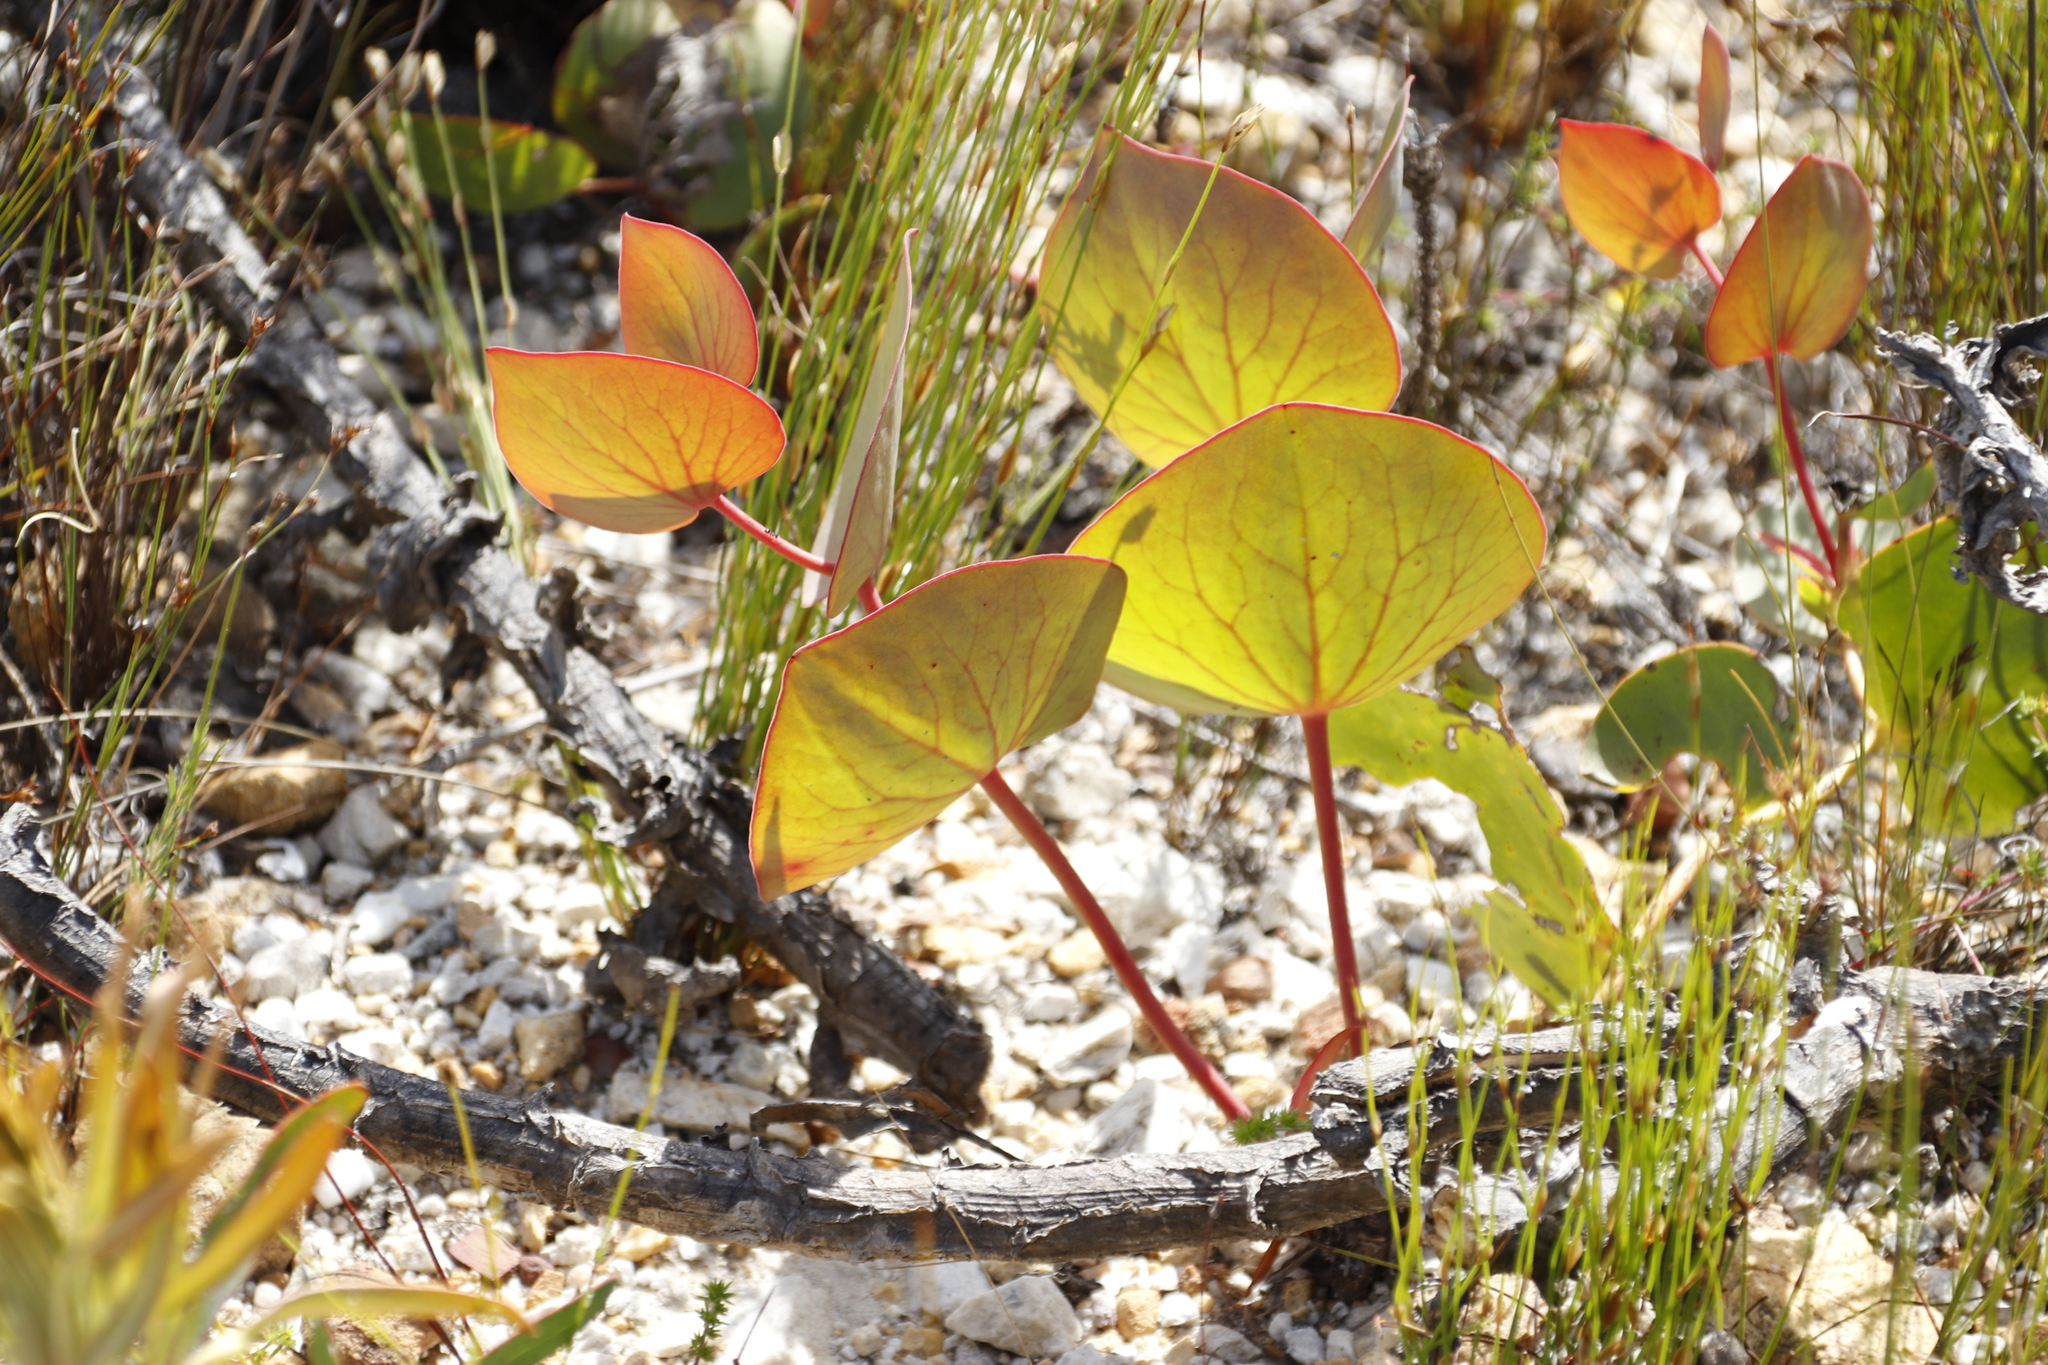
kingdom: Plantae
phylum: Tracheophyta
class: Magnoliopsida
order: Proteales
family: Proteaceae
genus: Protea
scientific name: Protea cordata
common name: Heart-leaf sugarbush
